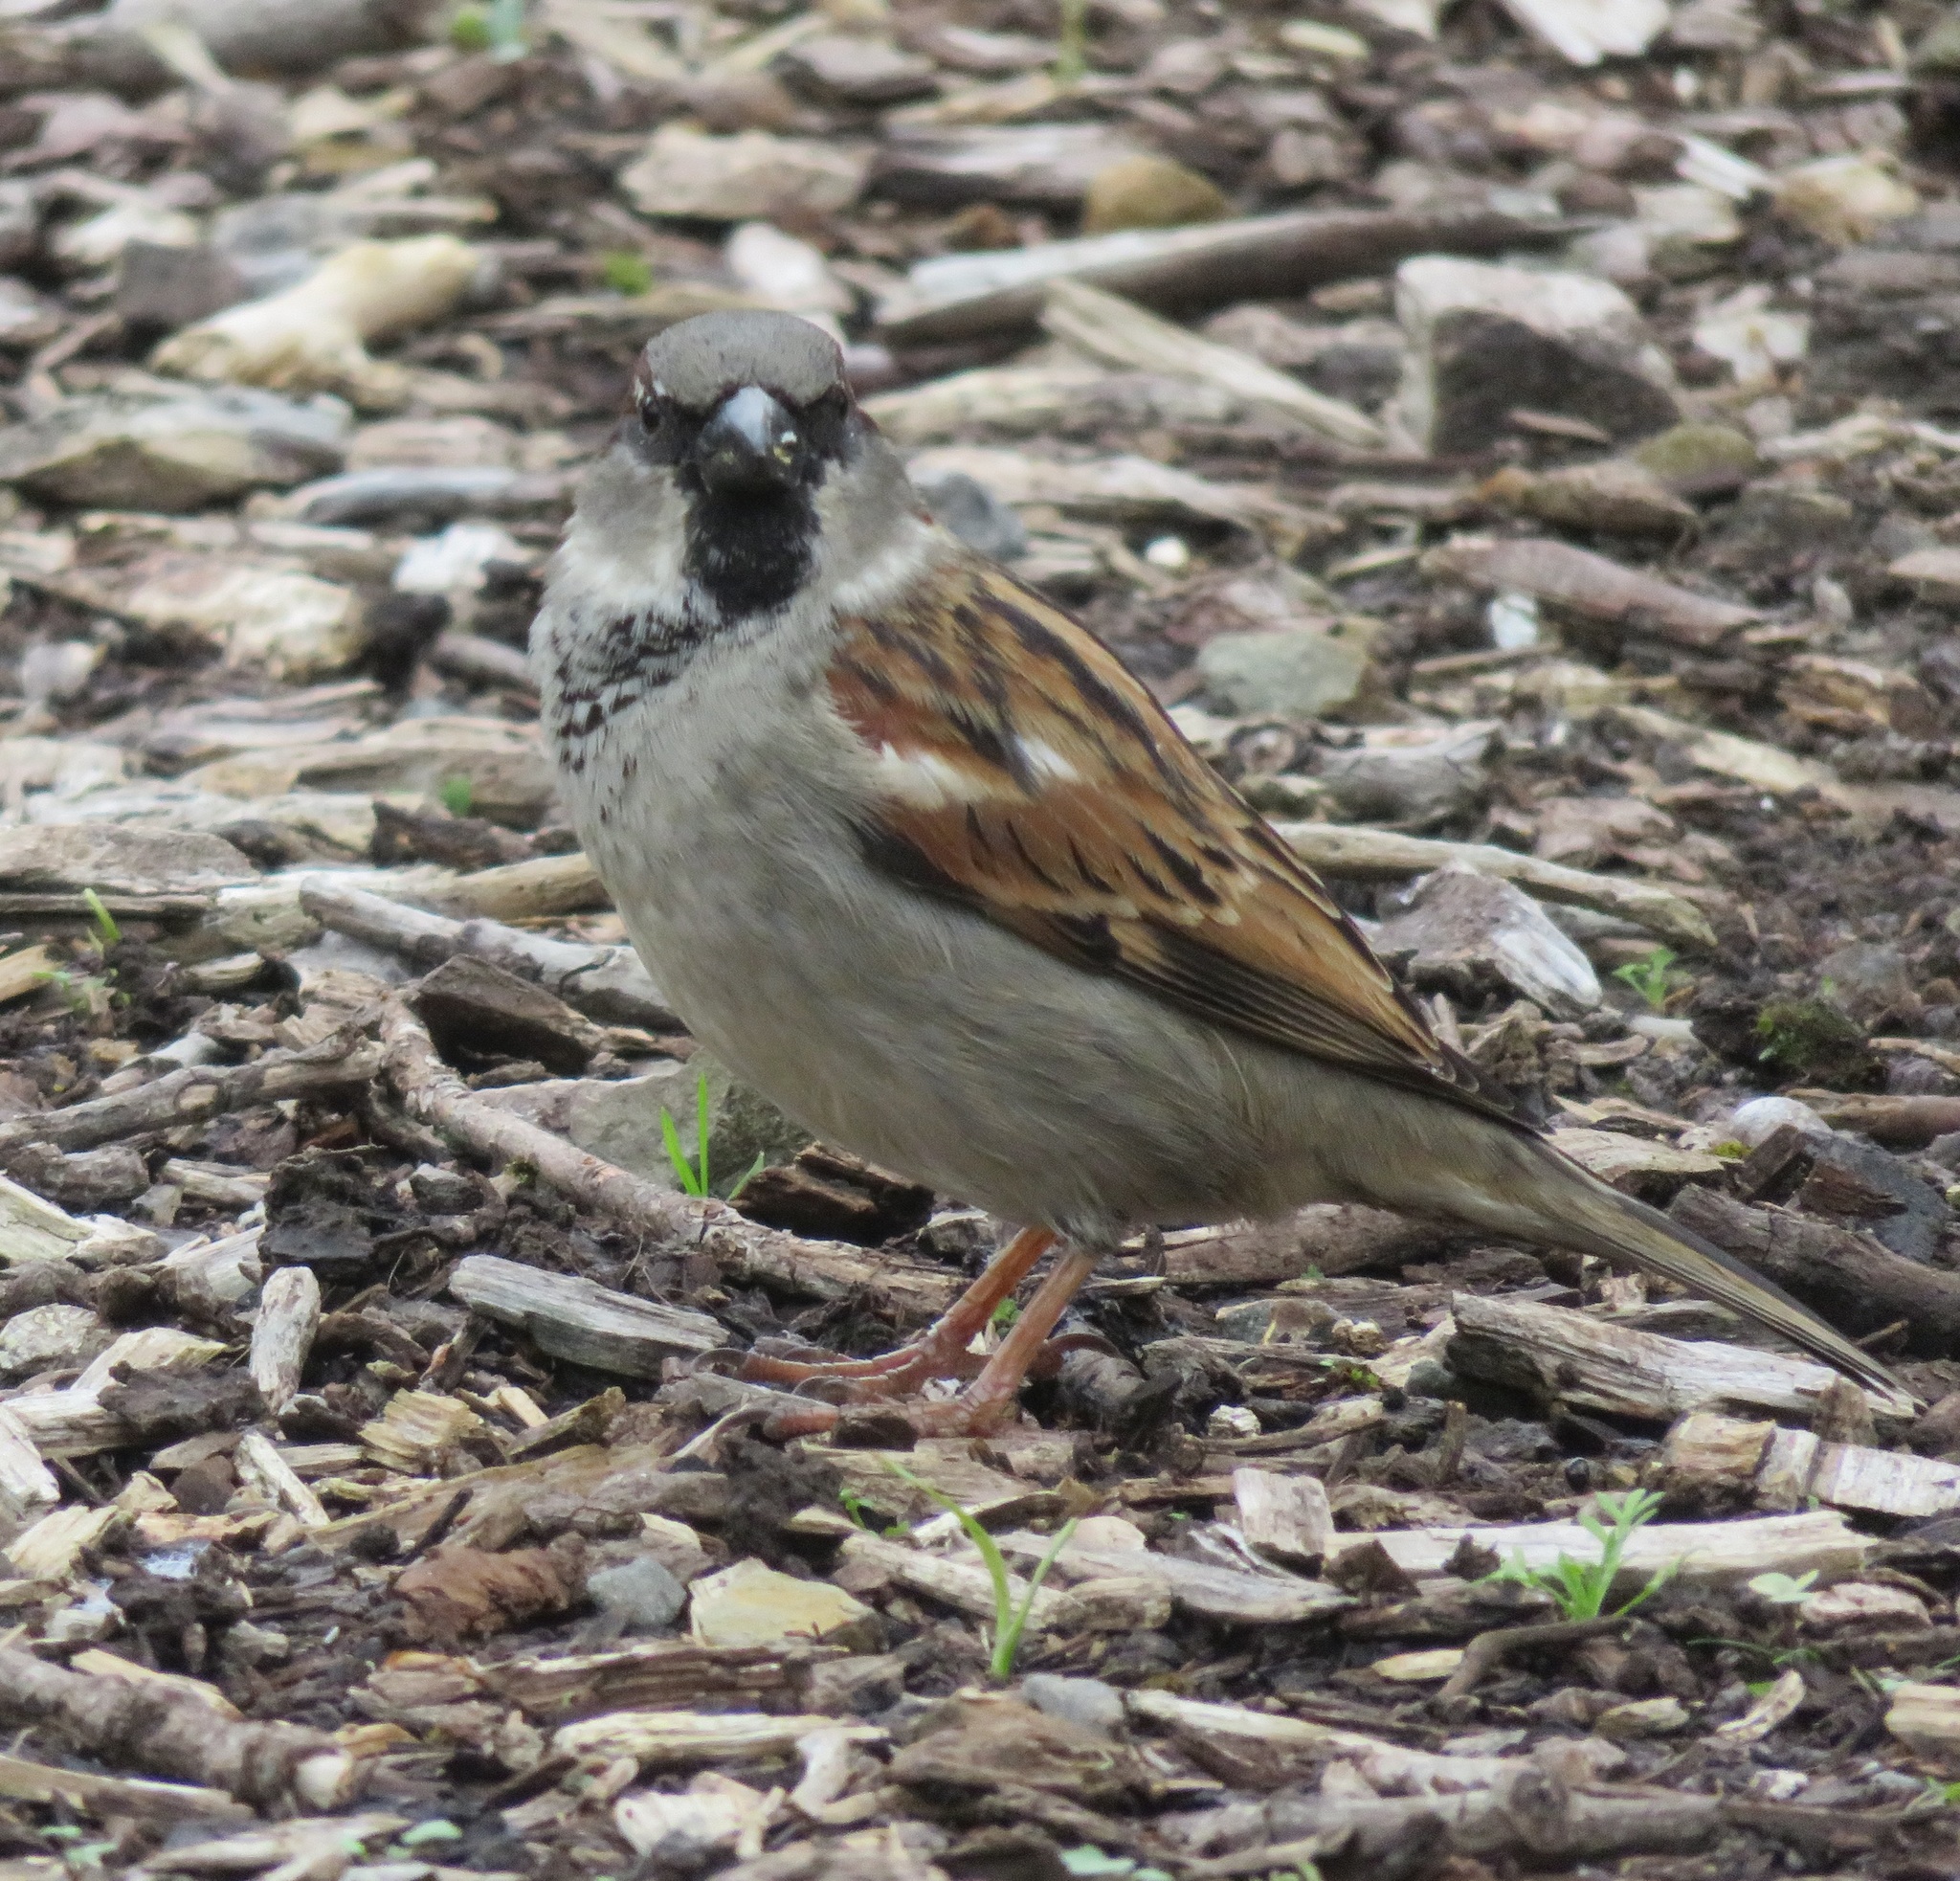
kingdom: Animalia
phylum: Chordata
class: Aves
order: Passeriformes
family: Passeridae
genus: Passer
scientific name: Passer domesticus
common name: House sparrow
